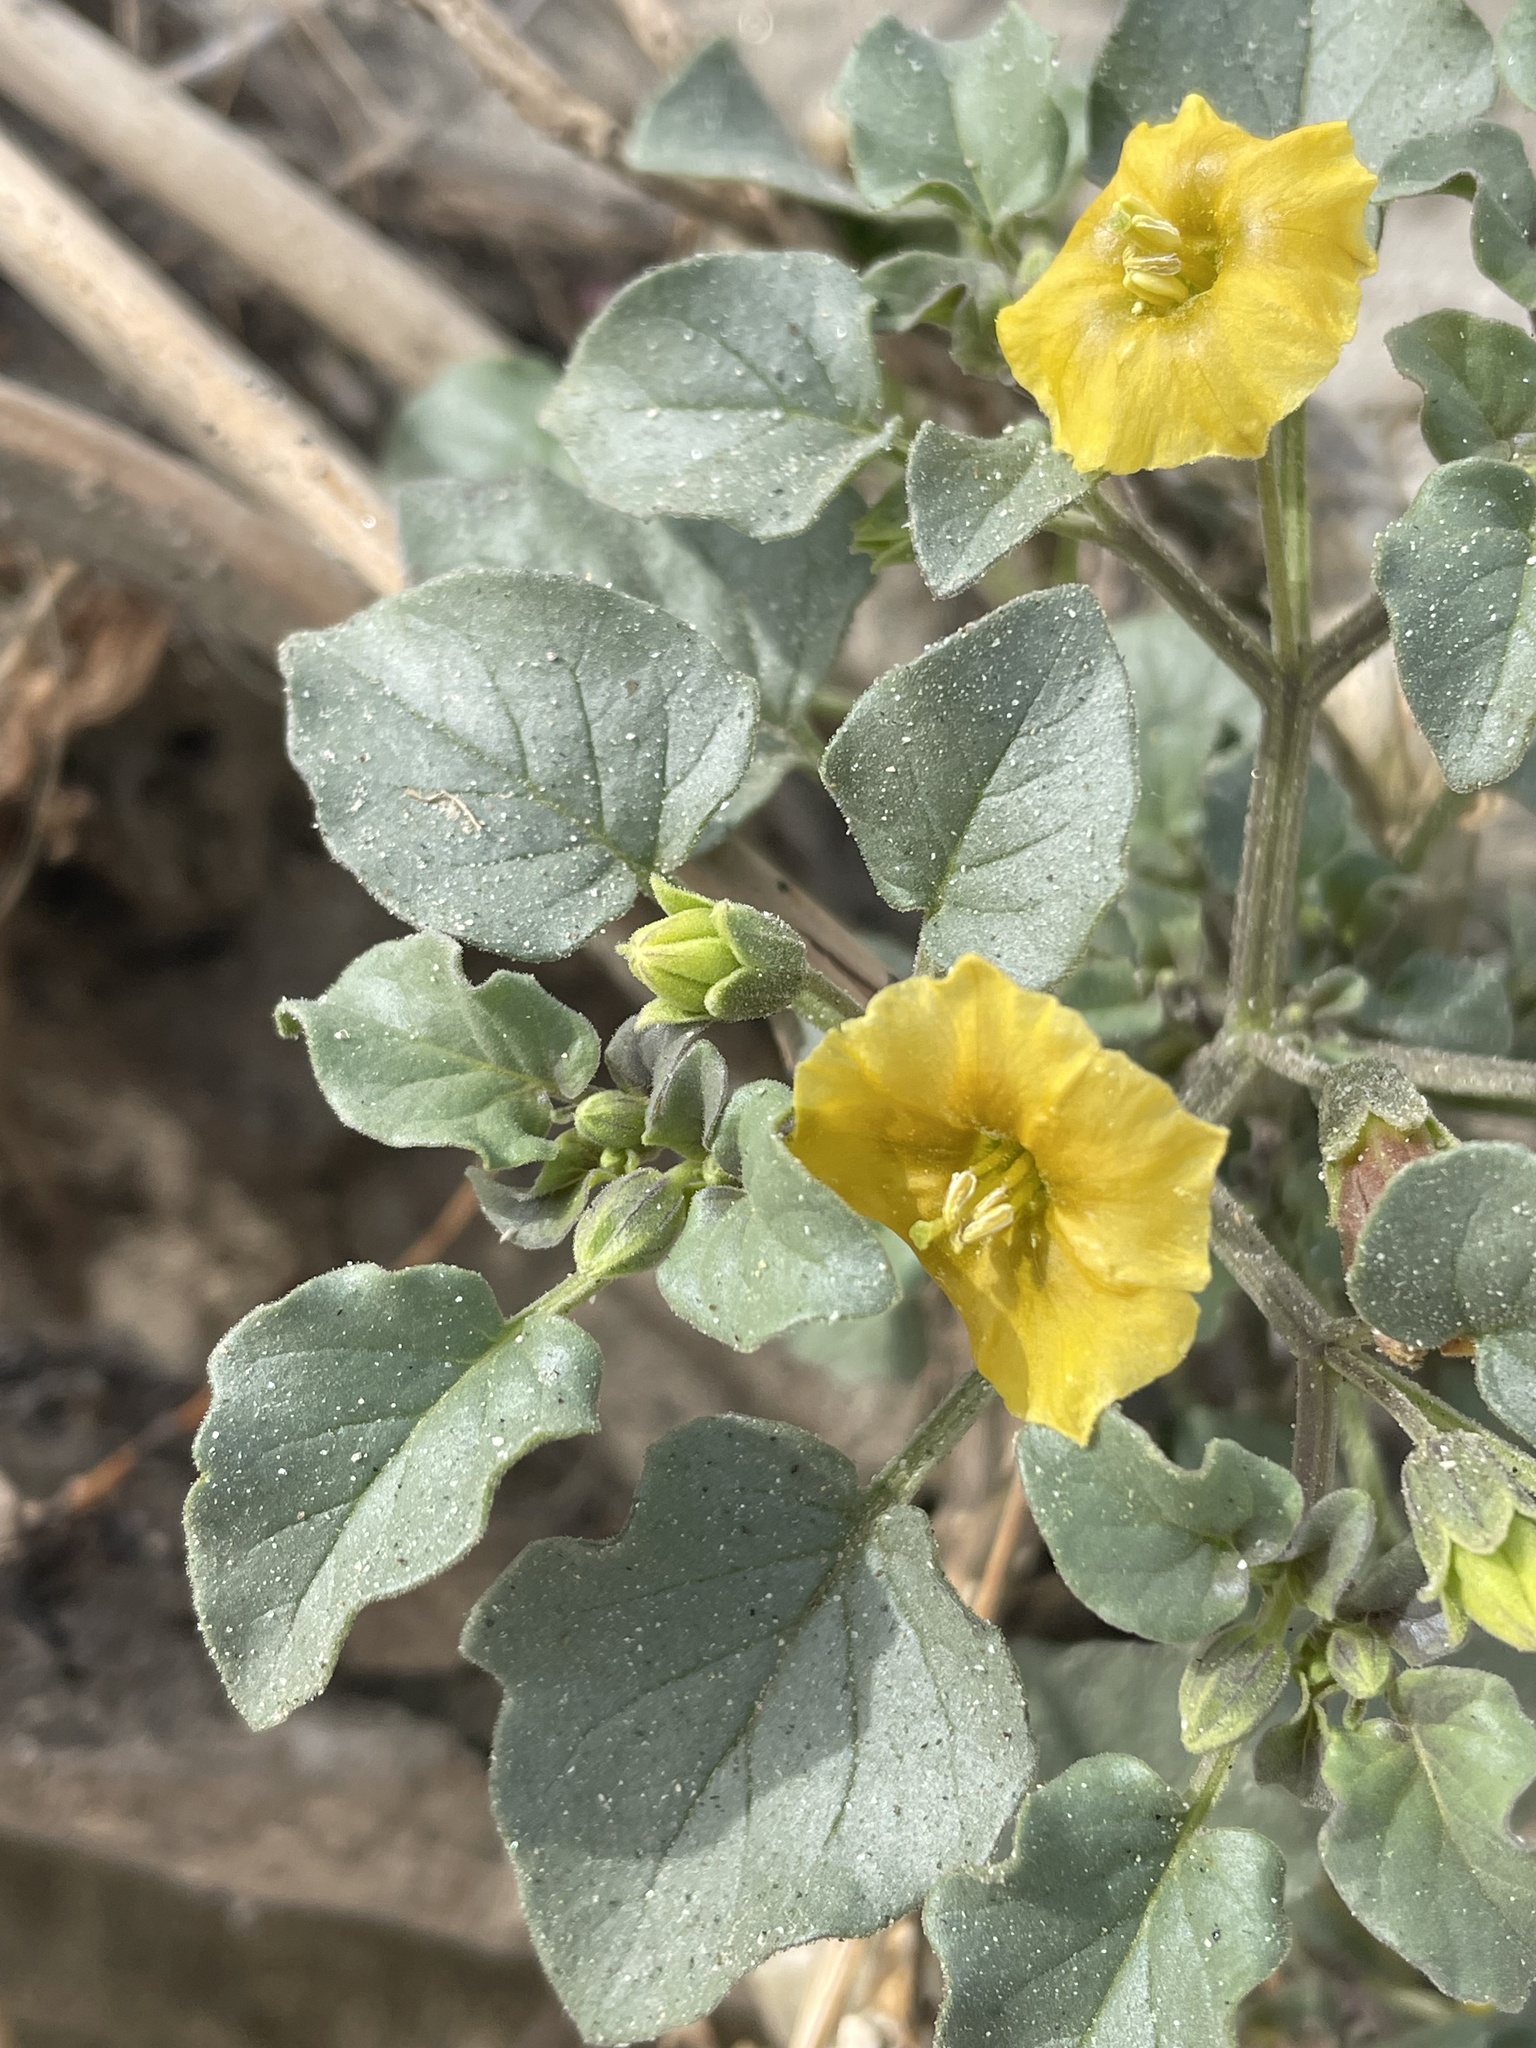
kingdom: Plantae
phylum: Tracheophyta
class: Magnoliopsida
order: Solanales
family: Solanaceae
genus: Physalis
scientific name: Physalis crassifolia
